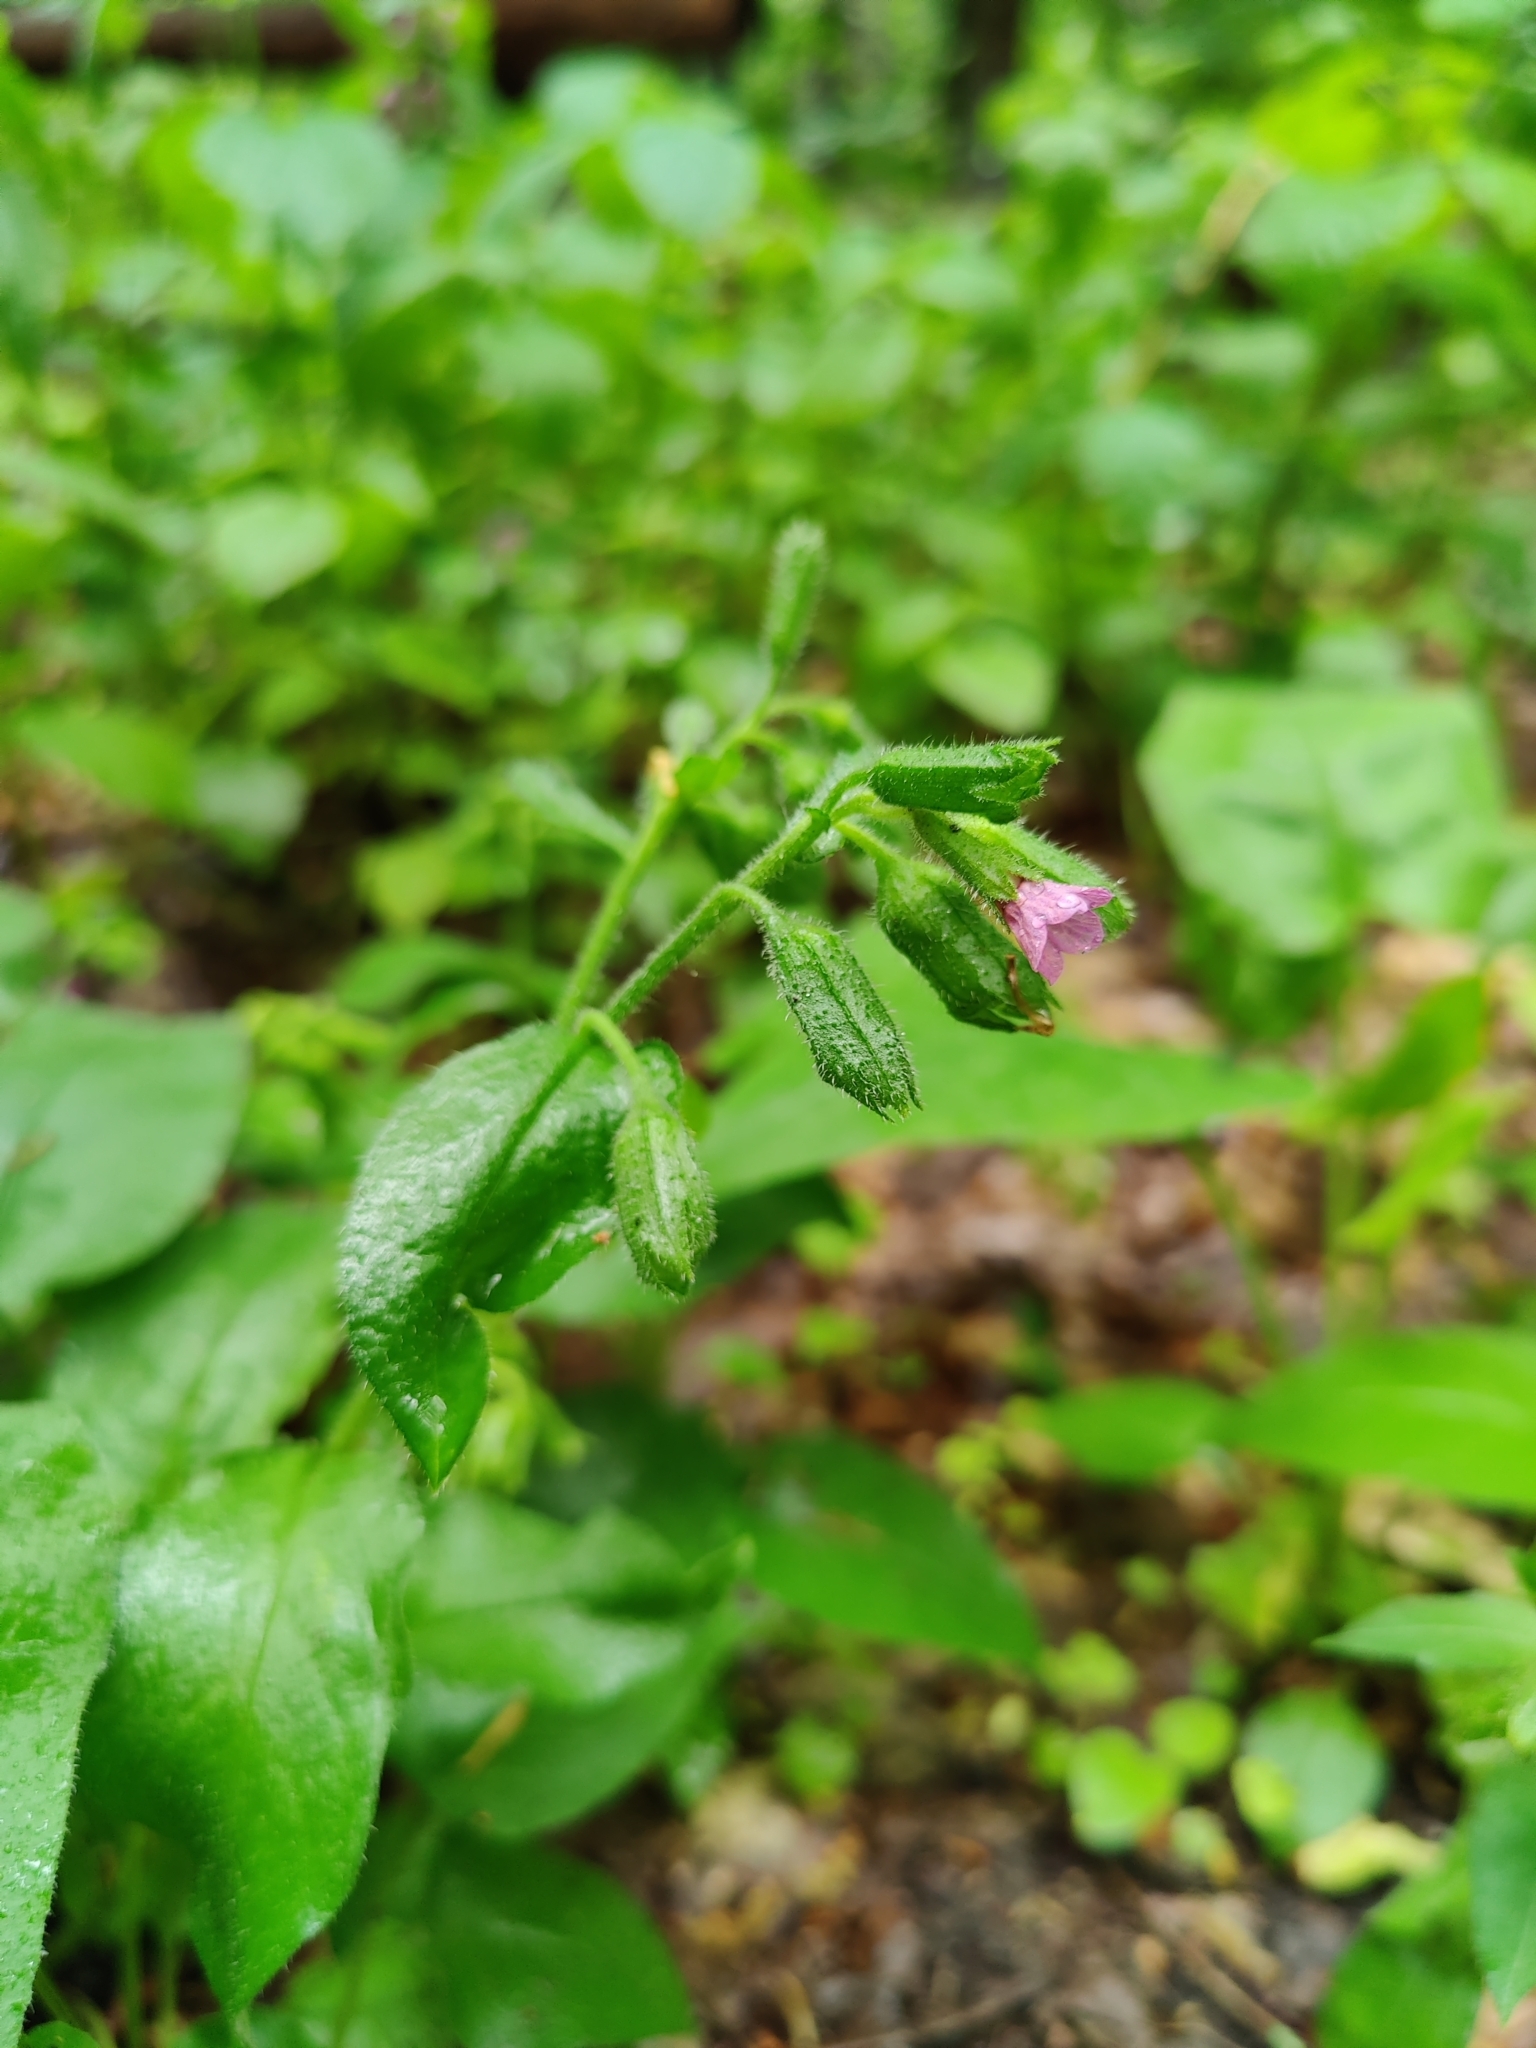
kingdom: Plantae
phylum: Tracheophyta
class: Magnoliopsida
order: Boraginales
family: Boraginaceae
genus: Pulmonaria
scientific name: Pulmonaria obscura
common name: Suffolk lungwort
